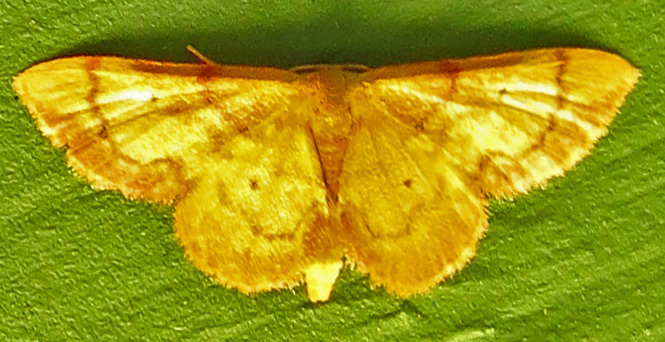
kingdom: Animalia
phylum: Arthropoda
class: Insecta
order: Lepidoptera
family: Geometridae
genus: Idaea
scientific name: Idaea demissaria
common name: Red-bordered wave
